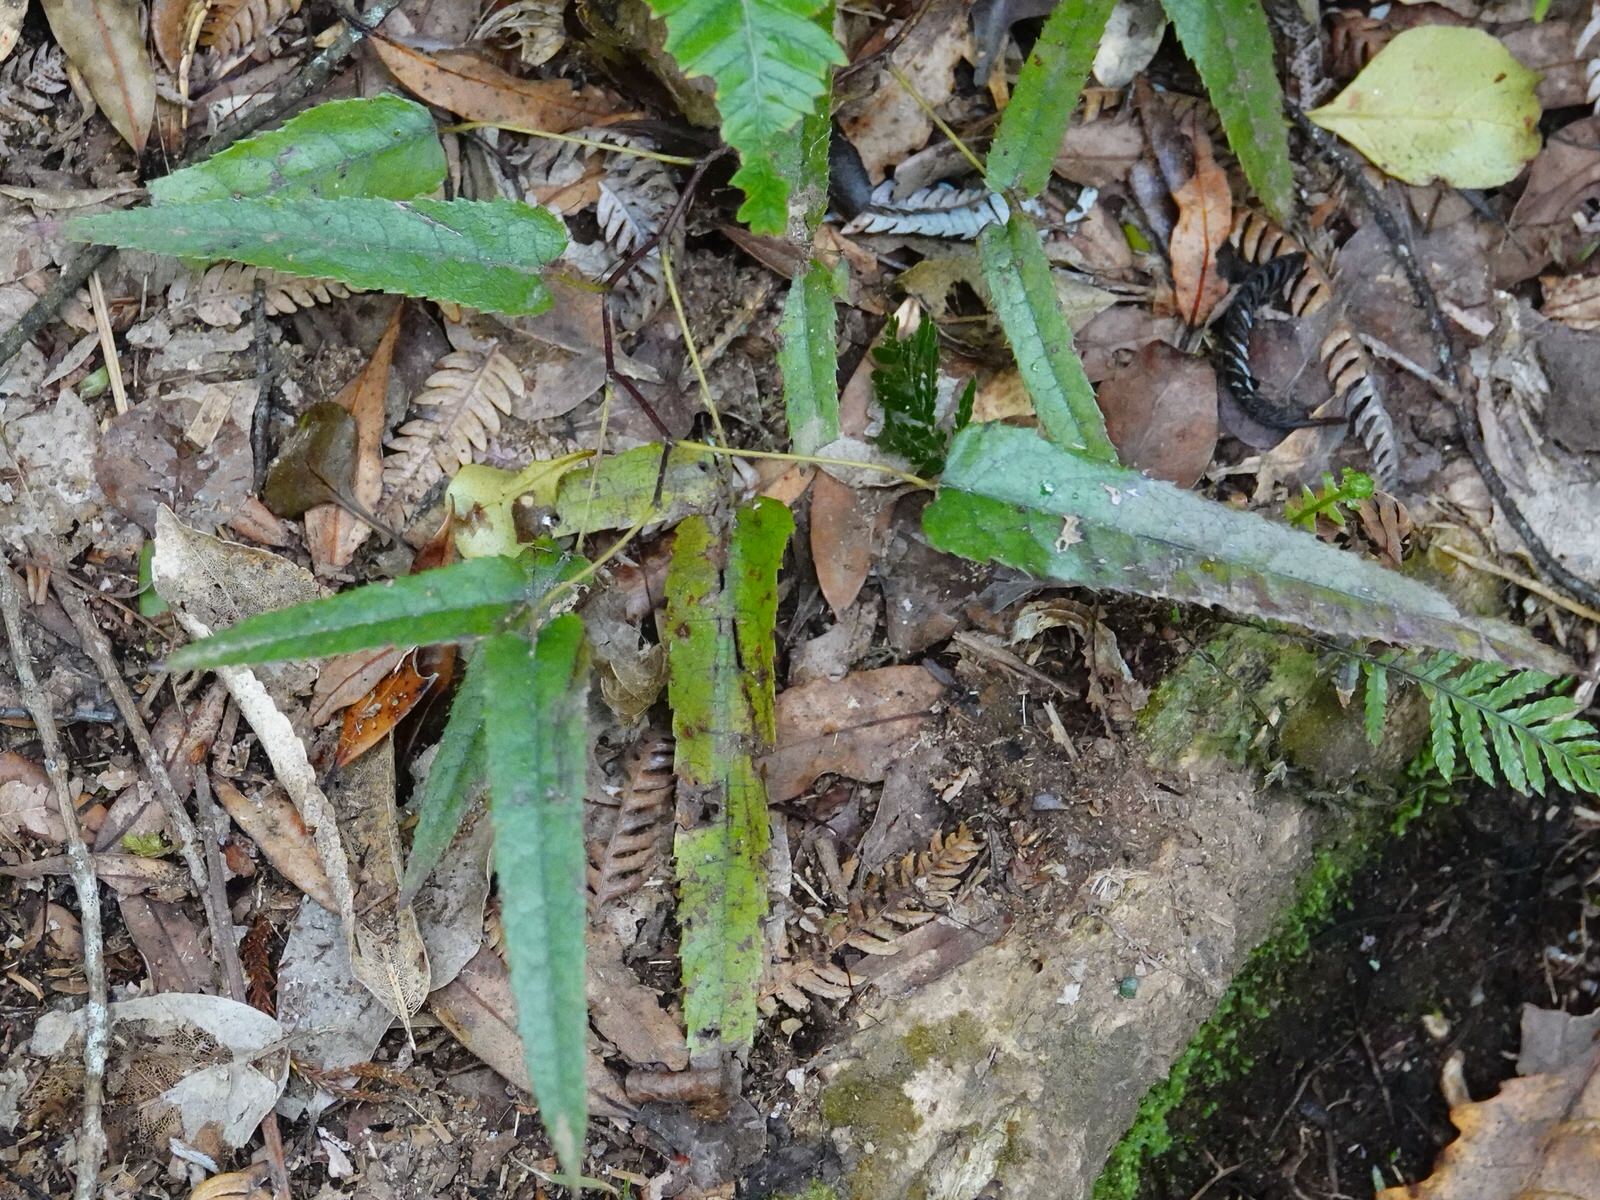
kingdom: Plantae
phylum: Tracheophyta
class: Magnoliopsida
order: Rosales
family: Rosaceae
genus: Rubus
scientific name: Rubus cissoides
